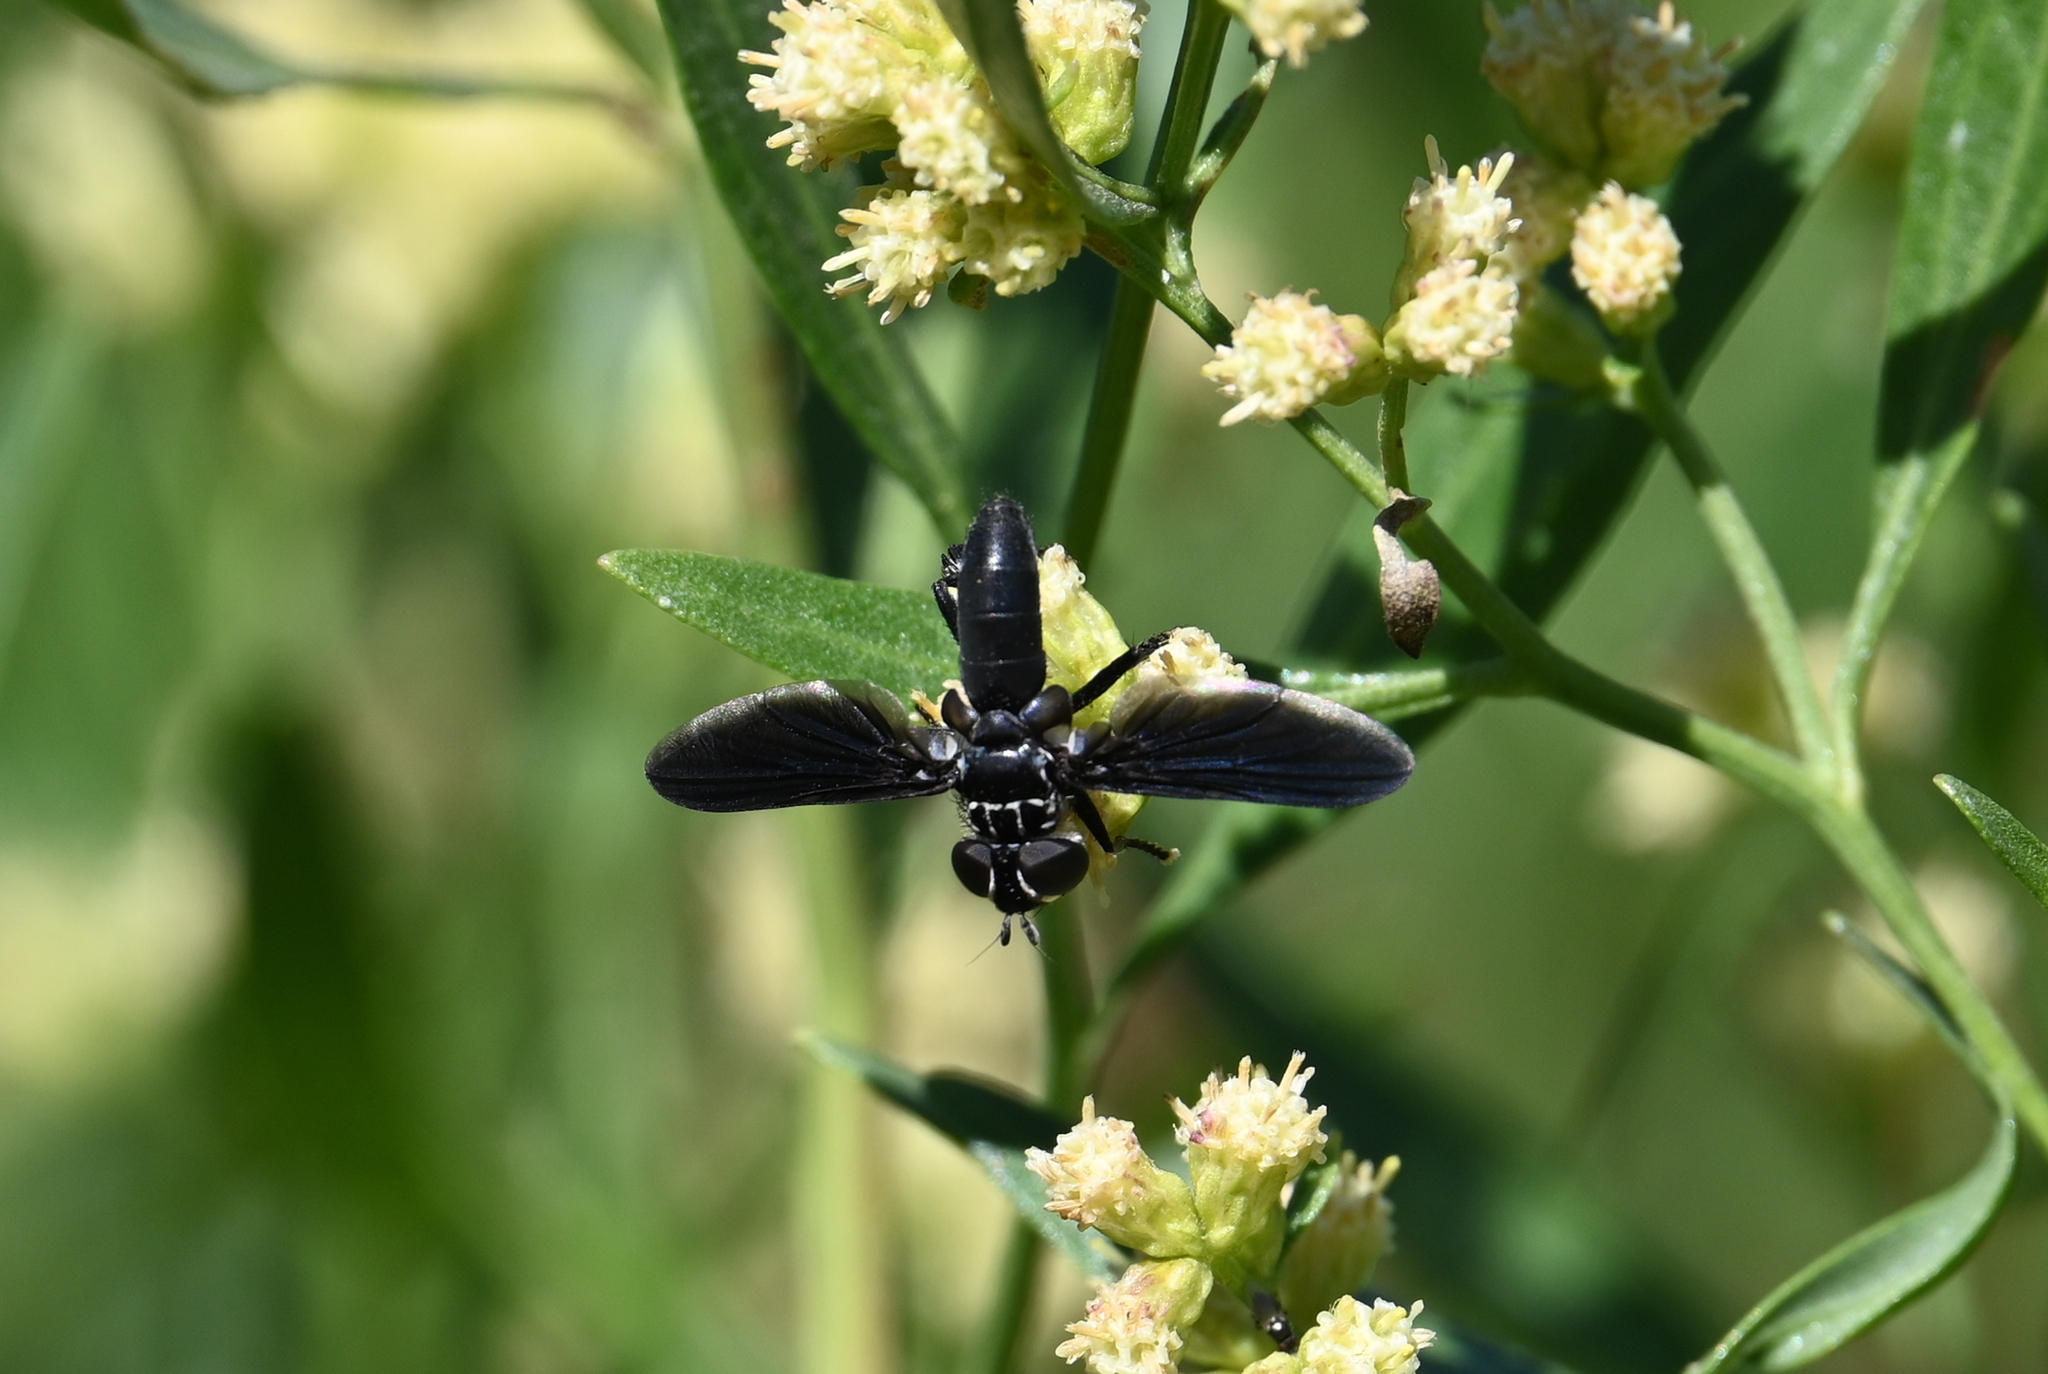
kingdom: Animalia
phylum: Arthropoda
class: Insecta
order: Diptera
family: Tachinidae
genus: Trichopoda
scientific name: Trichopoda lanipes
